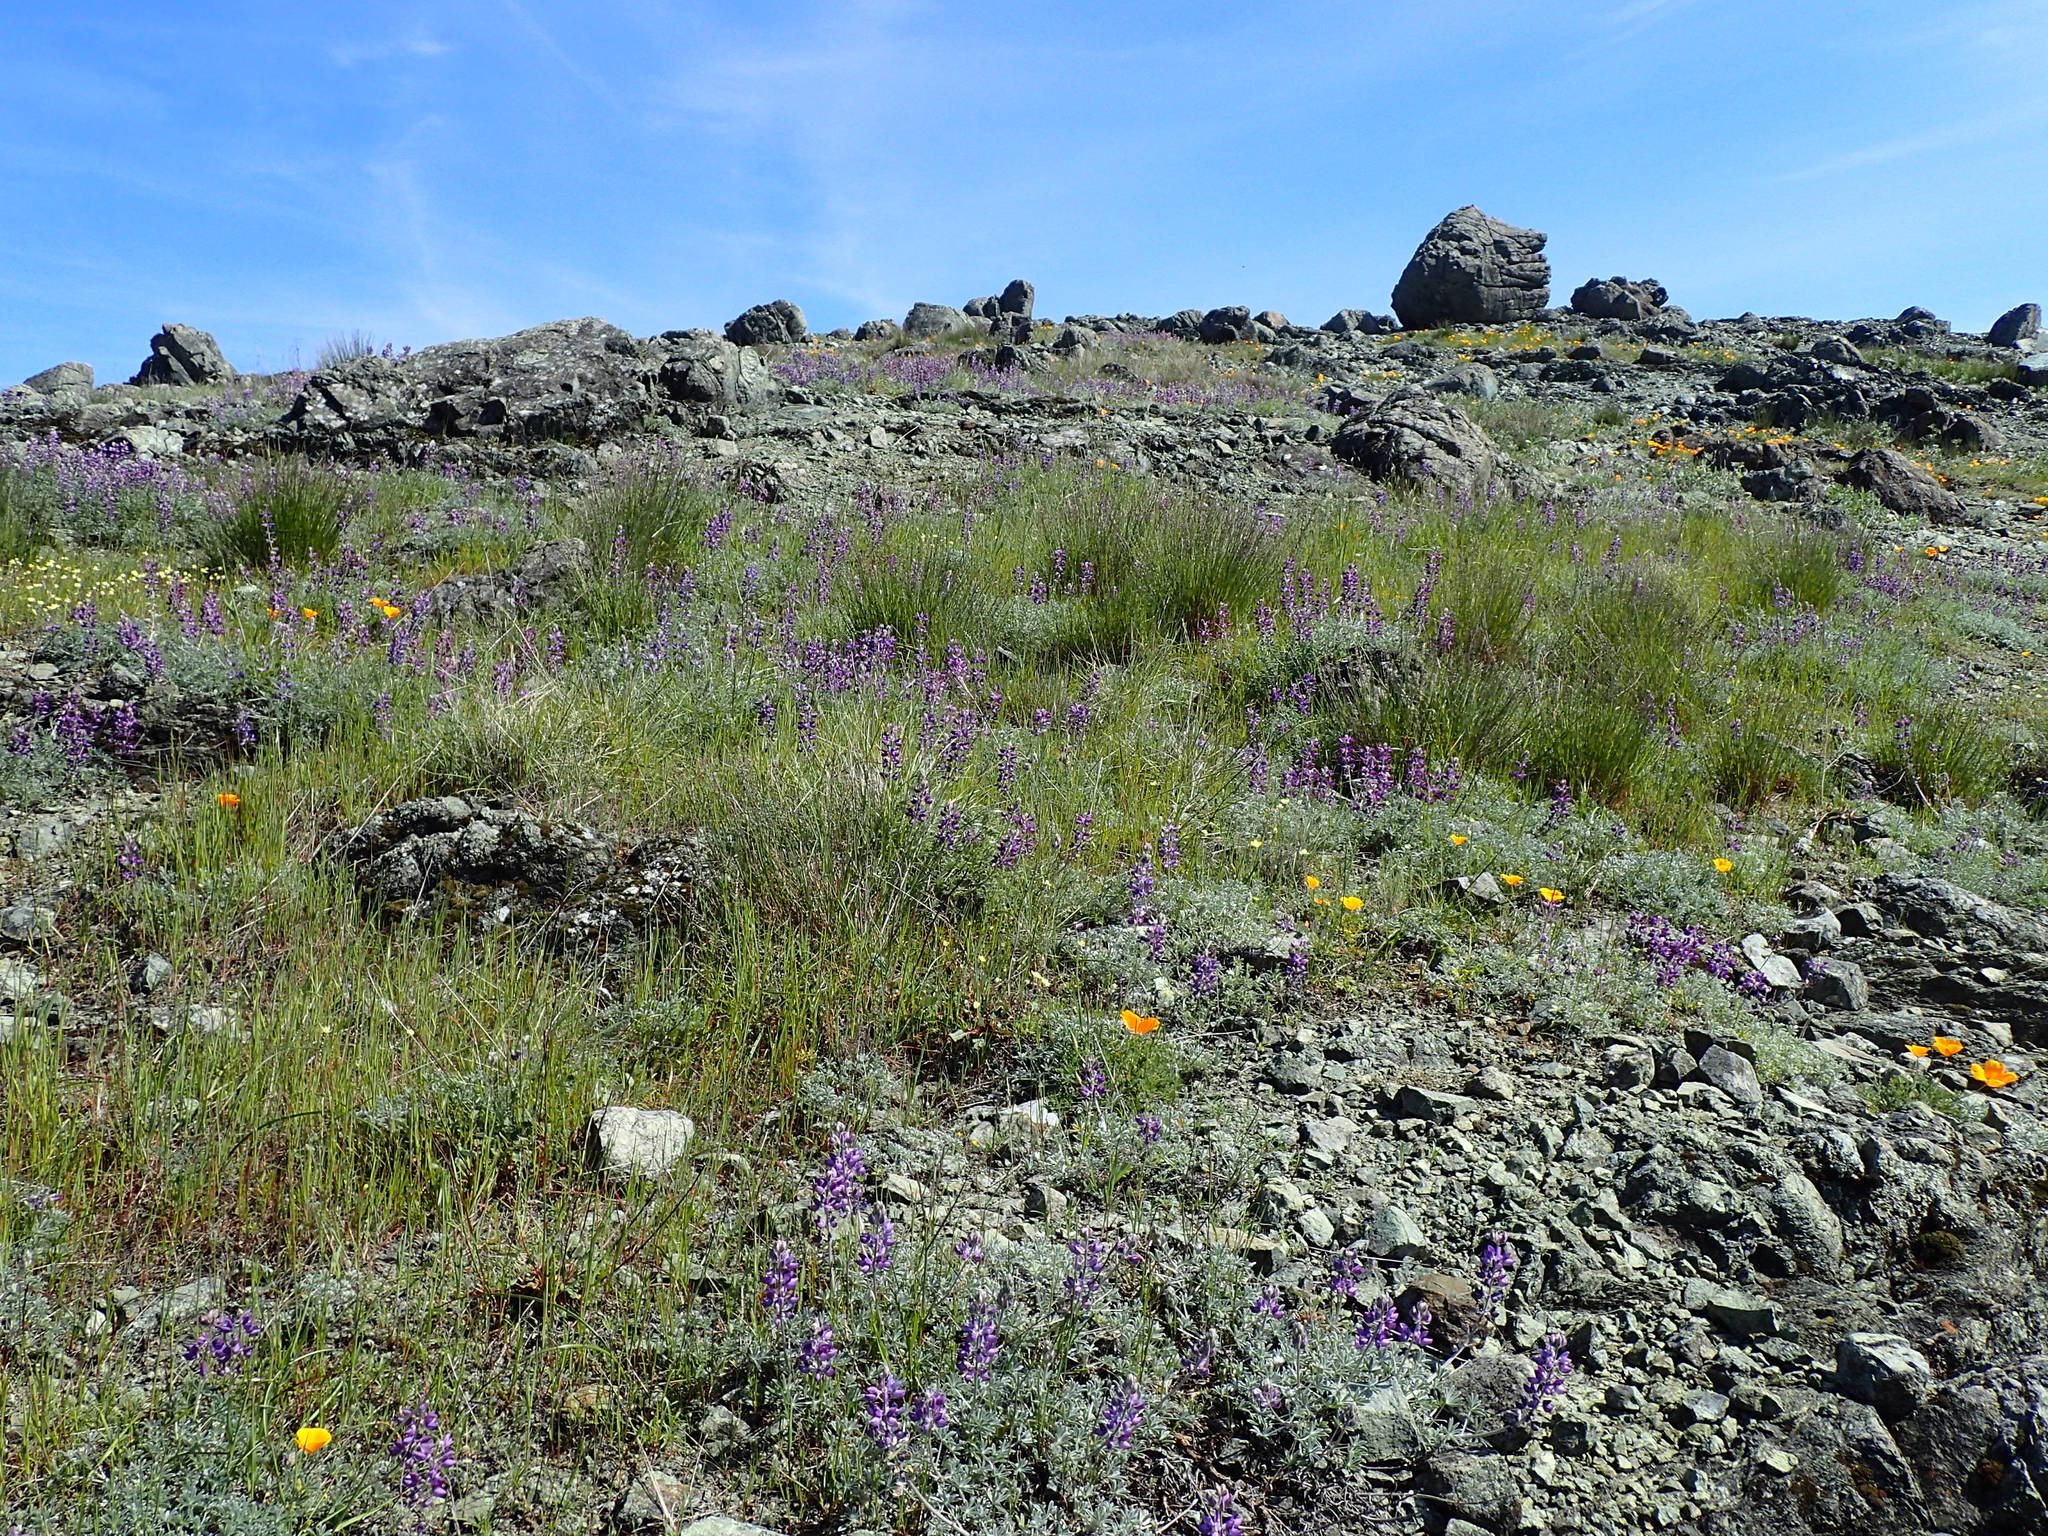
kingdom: Plantae
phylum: Tracheophyta
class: Magnoliopsida
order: Fabales
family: Fabaceae
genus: Astragalus
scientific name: Astragalus breweri
